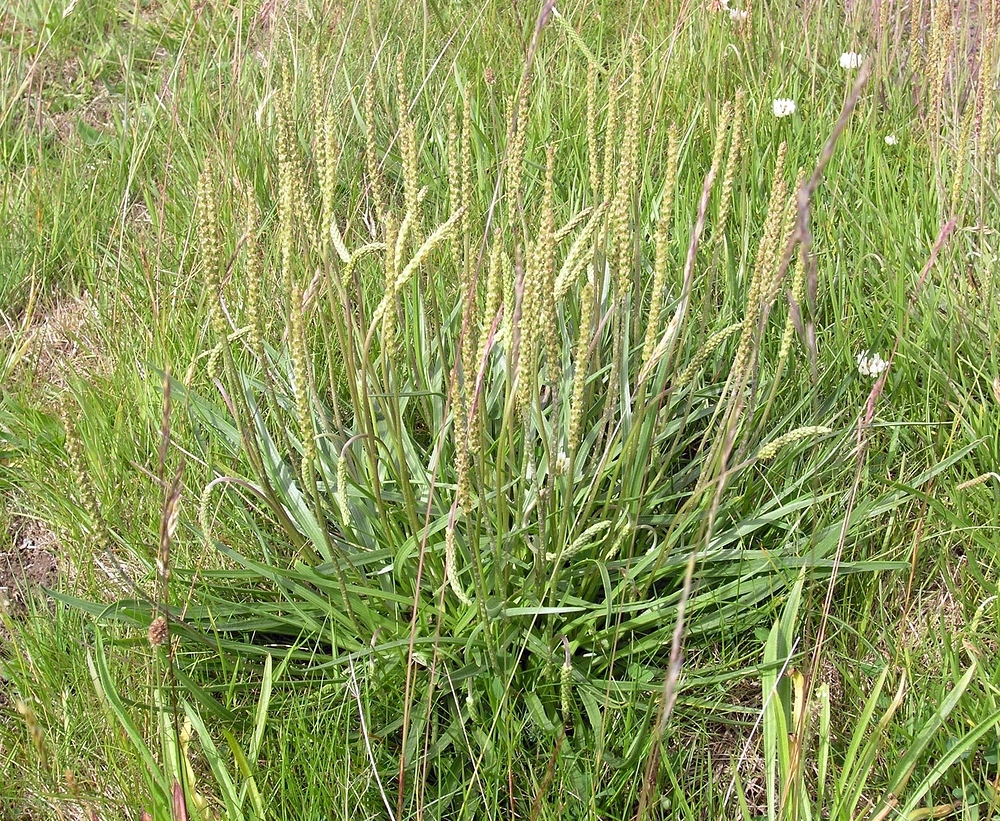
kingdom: Plantae
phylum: Tracheophyta
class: Magnoliopsida
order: Lamiales
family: Plantaginaceae
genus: Plantago
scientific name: Plantago maritima
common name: Sea plantain
